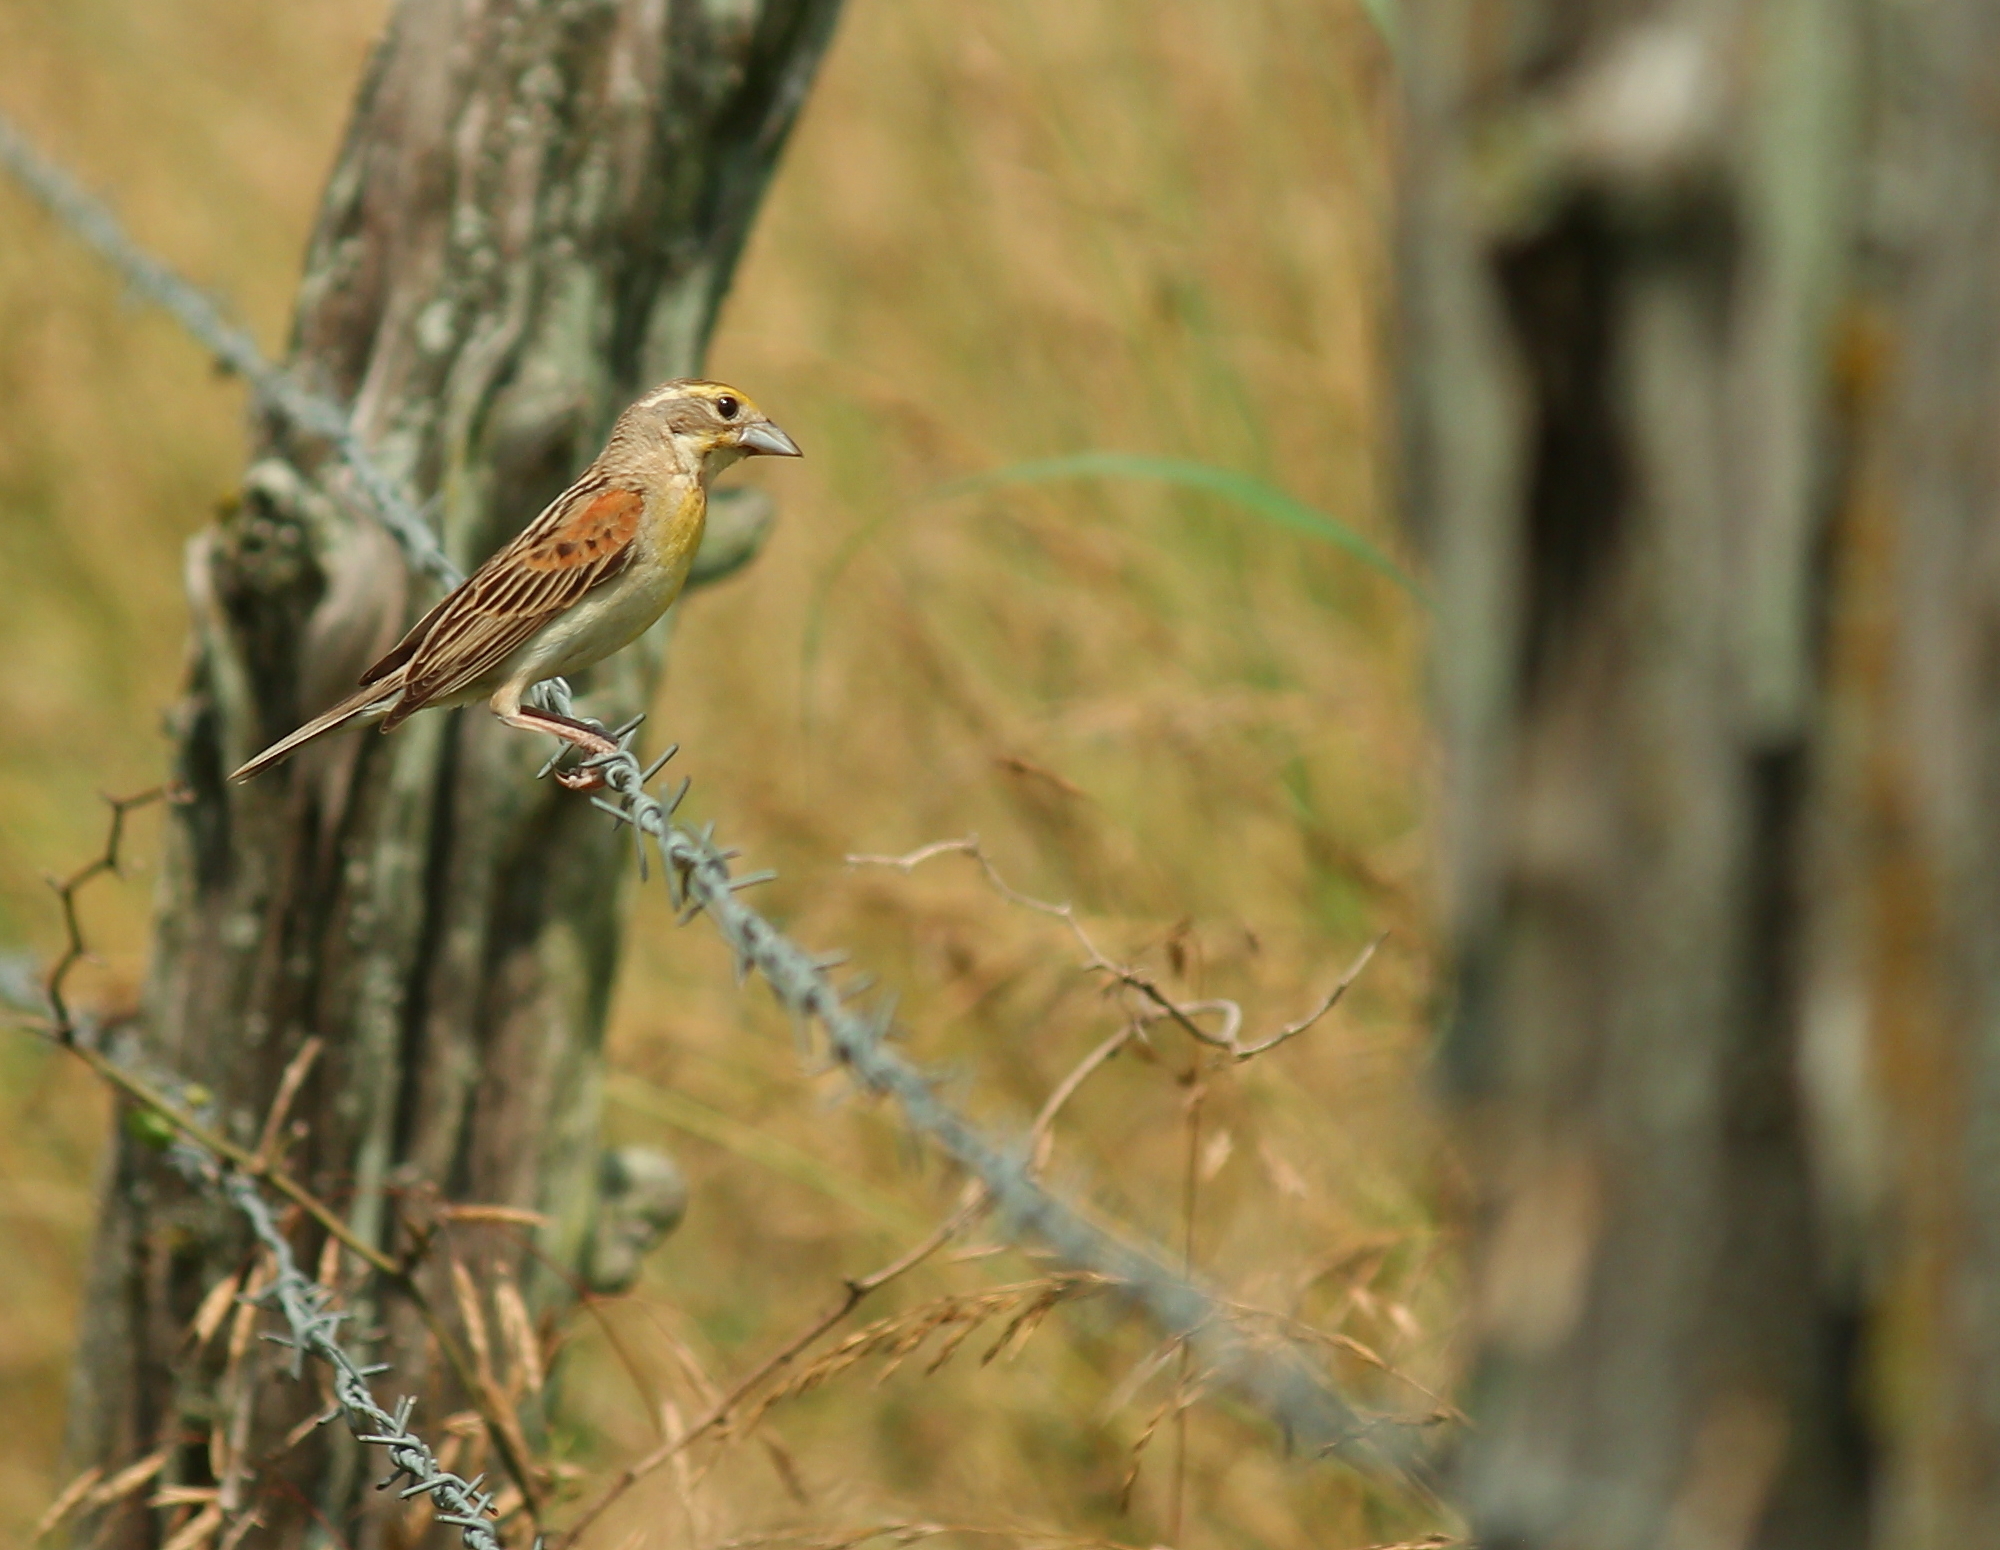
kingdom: Animalia
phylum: Chordata
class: Aves
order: Passeriformes
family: Cardinalidae
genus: Spiza
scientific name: Spiza americana
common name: Dickcissel
